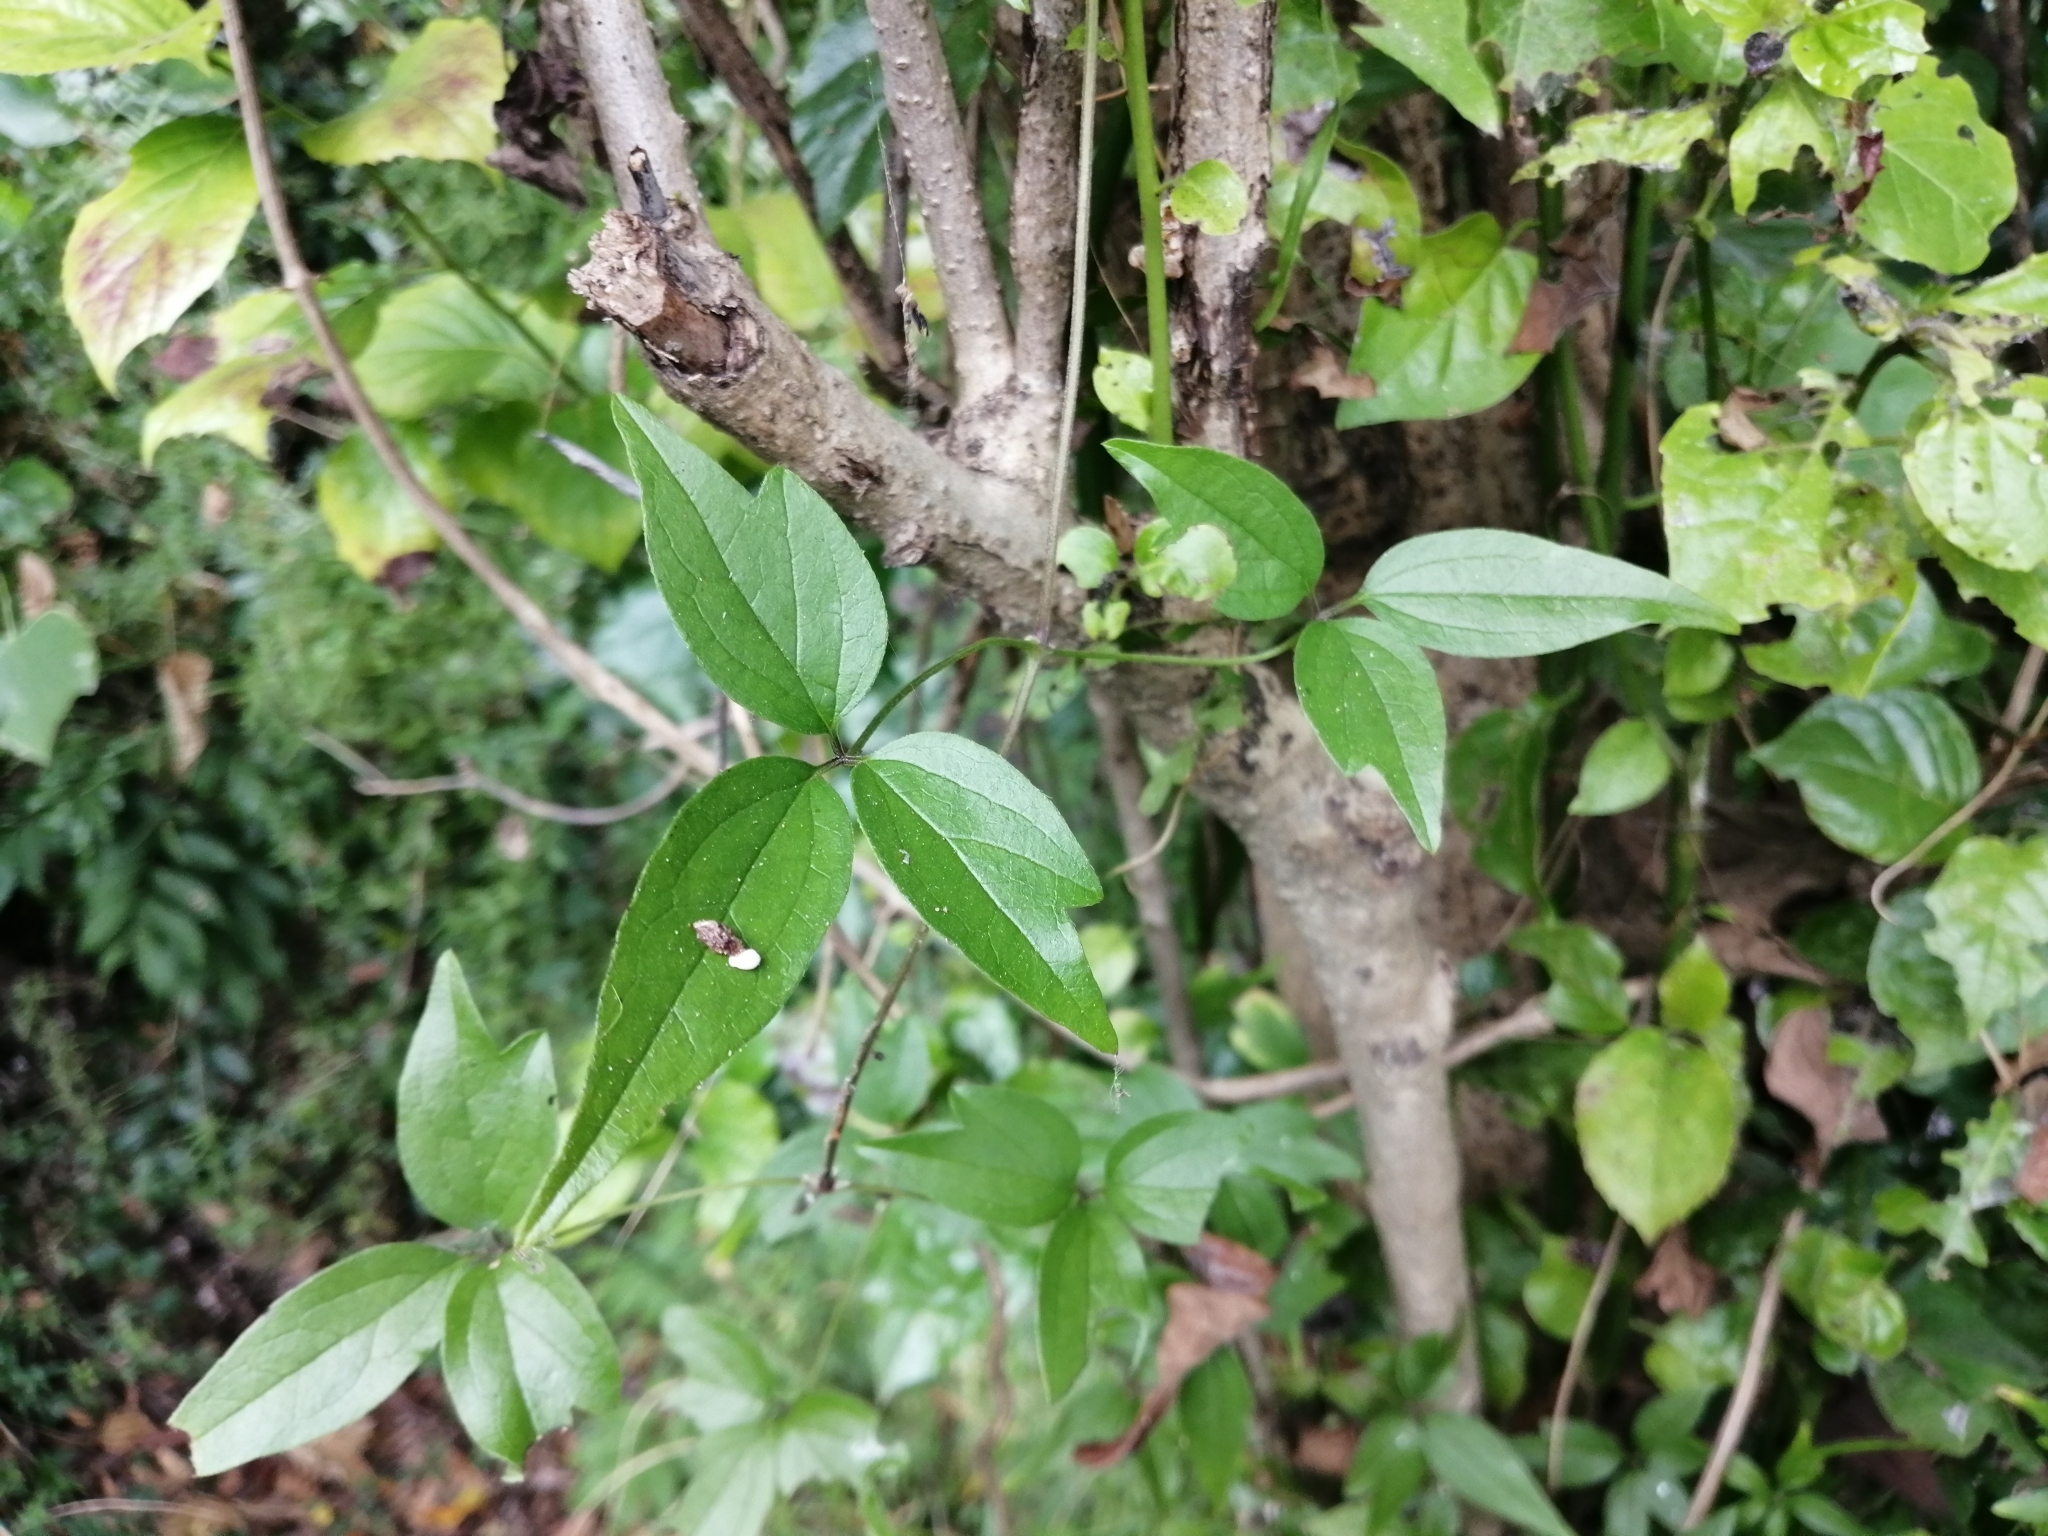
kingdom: Plantae
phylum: Tracheophyta
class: Magnoliopsida
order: Ranunculales
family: Ranunculaceae
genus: Clematis
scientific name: Clematis formosana
